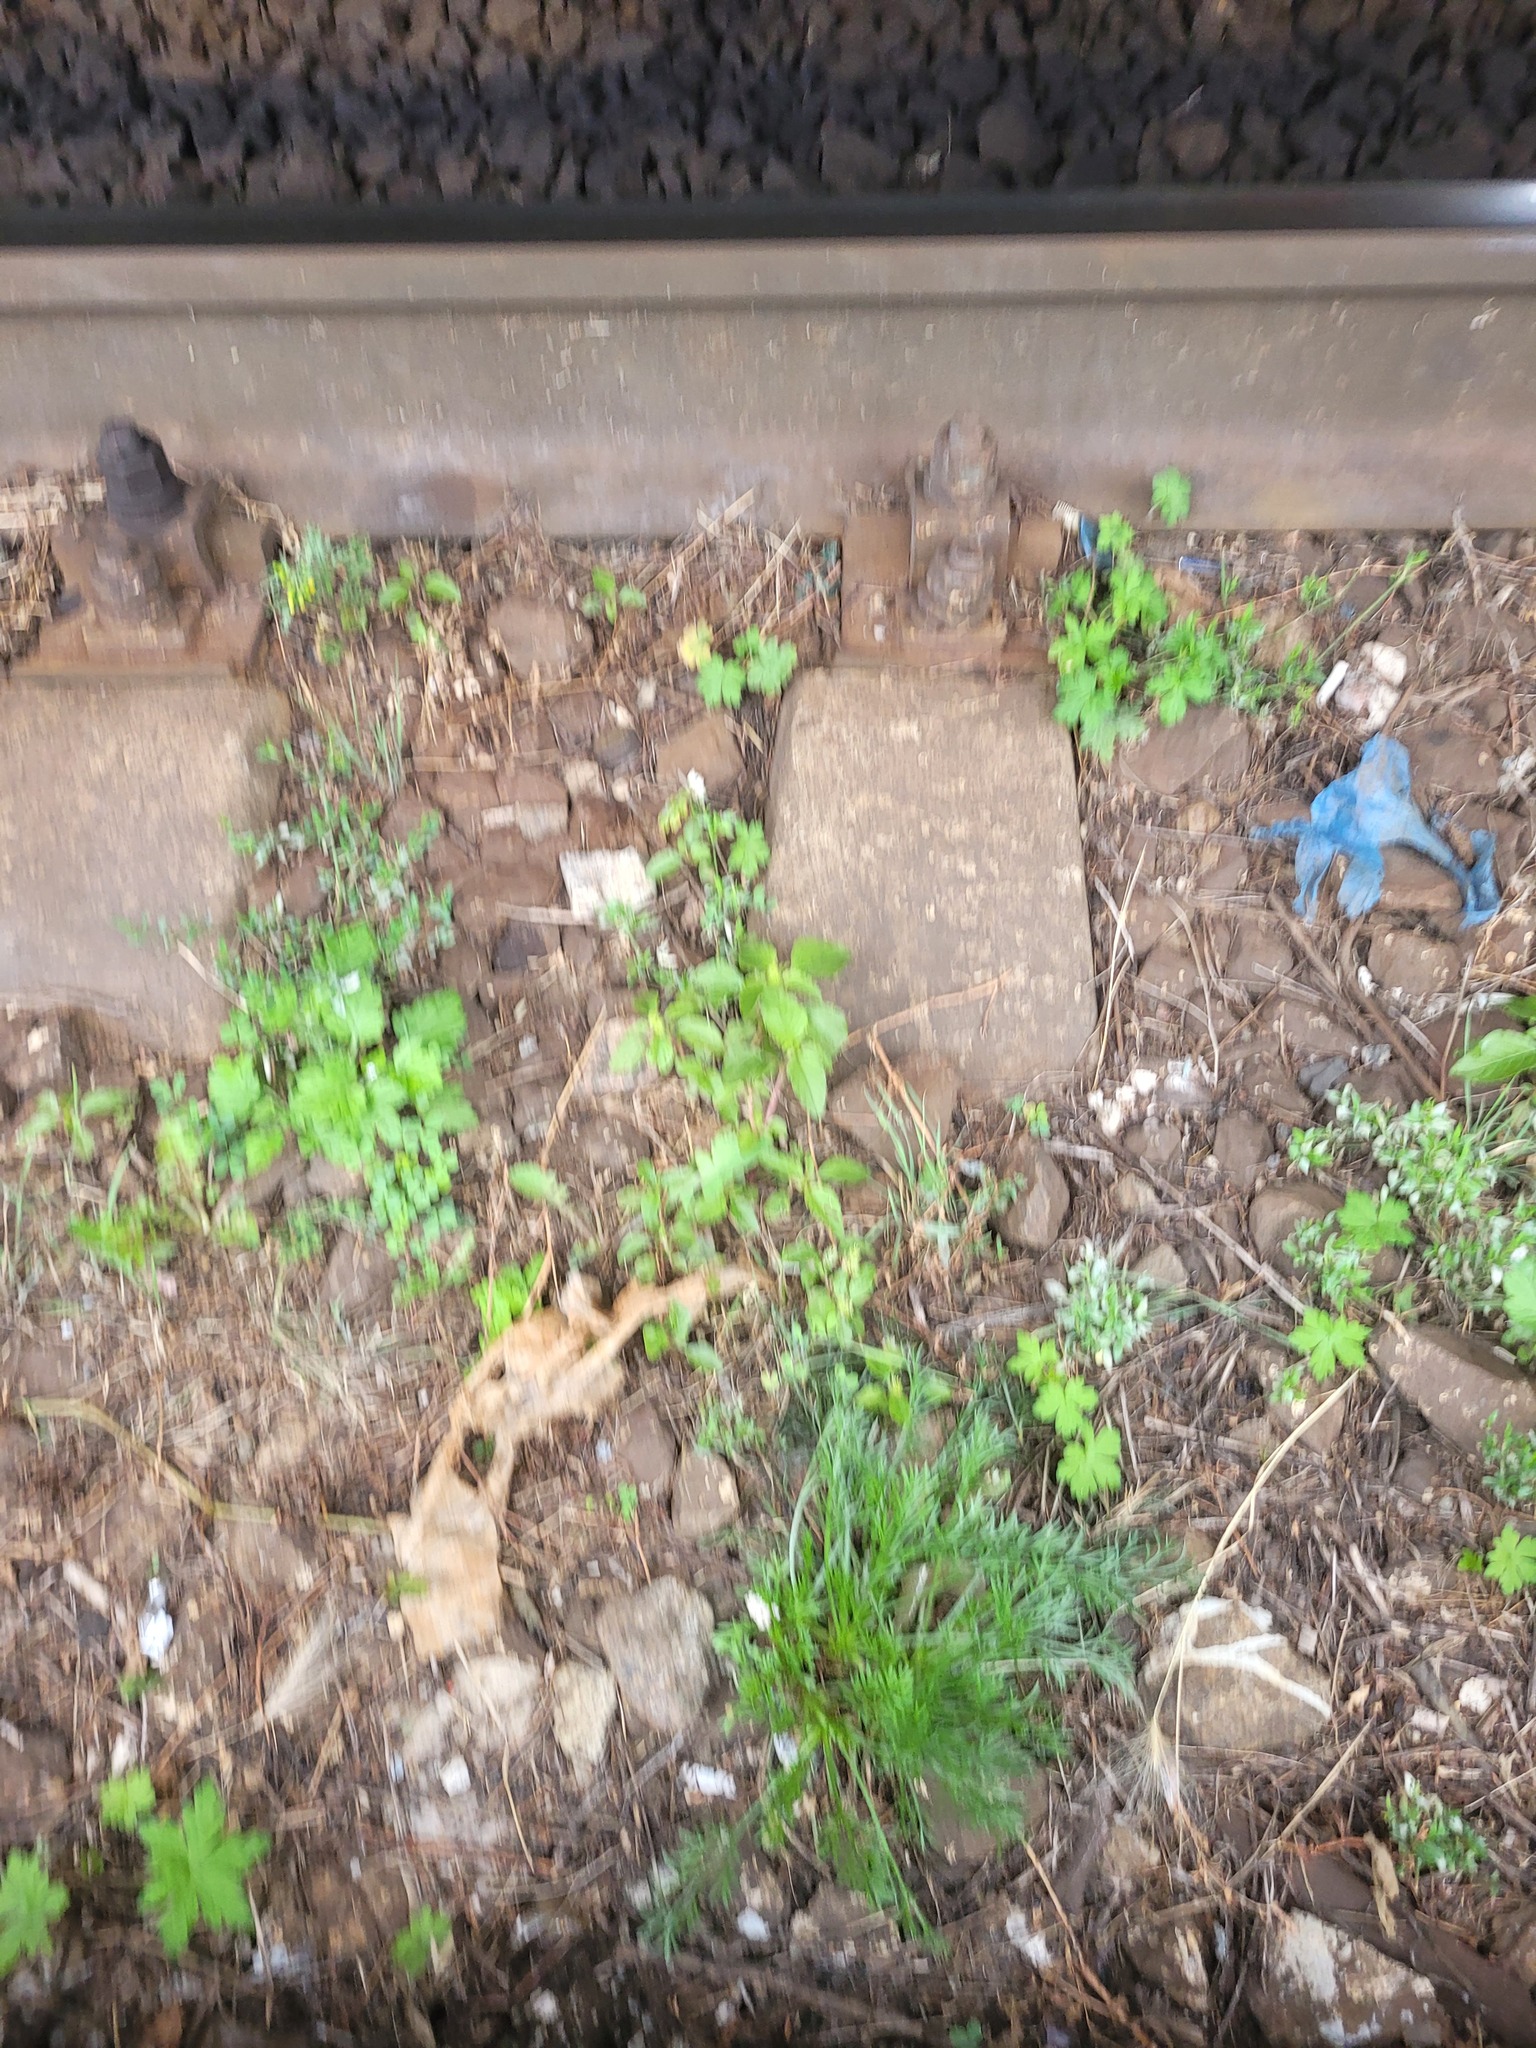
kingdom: Plantae
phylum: Tracheophyta
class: Magnoliopsida
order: Caryophyllales
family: Amaranthaceae
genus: Amaranthus
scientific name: Amaranthus retroflexus
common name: Redroot amaranth
